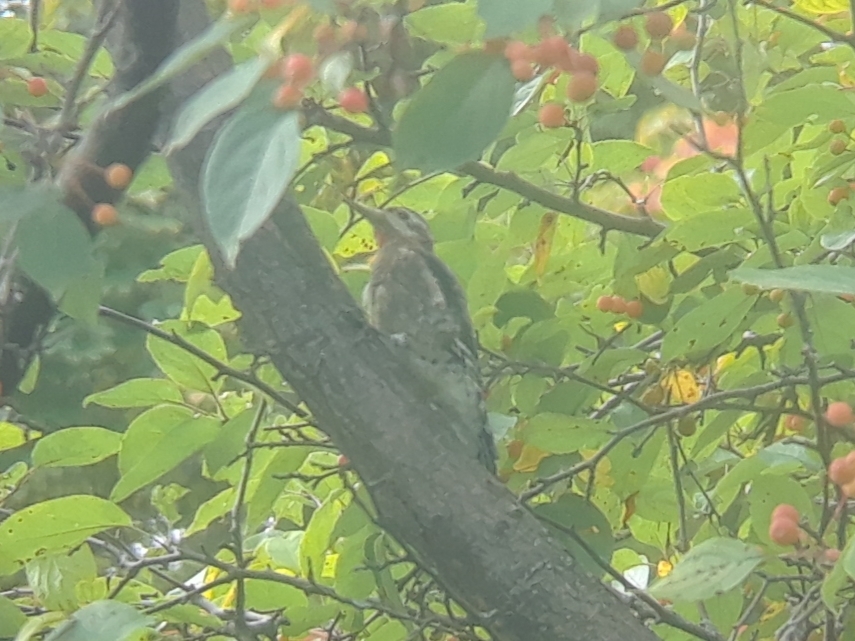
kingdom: Animalia
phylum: Chordata
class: Aves
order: Piciformes
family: Picidae
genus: Sphyrapicus
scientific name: Sphyrapicus varius
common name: Yellow-bellied sapsucker
